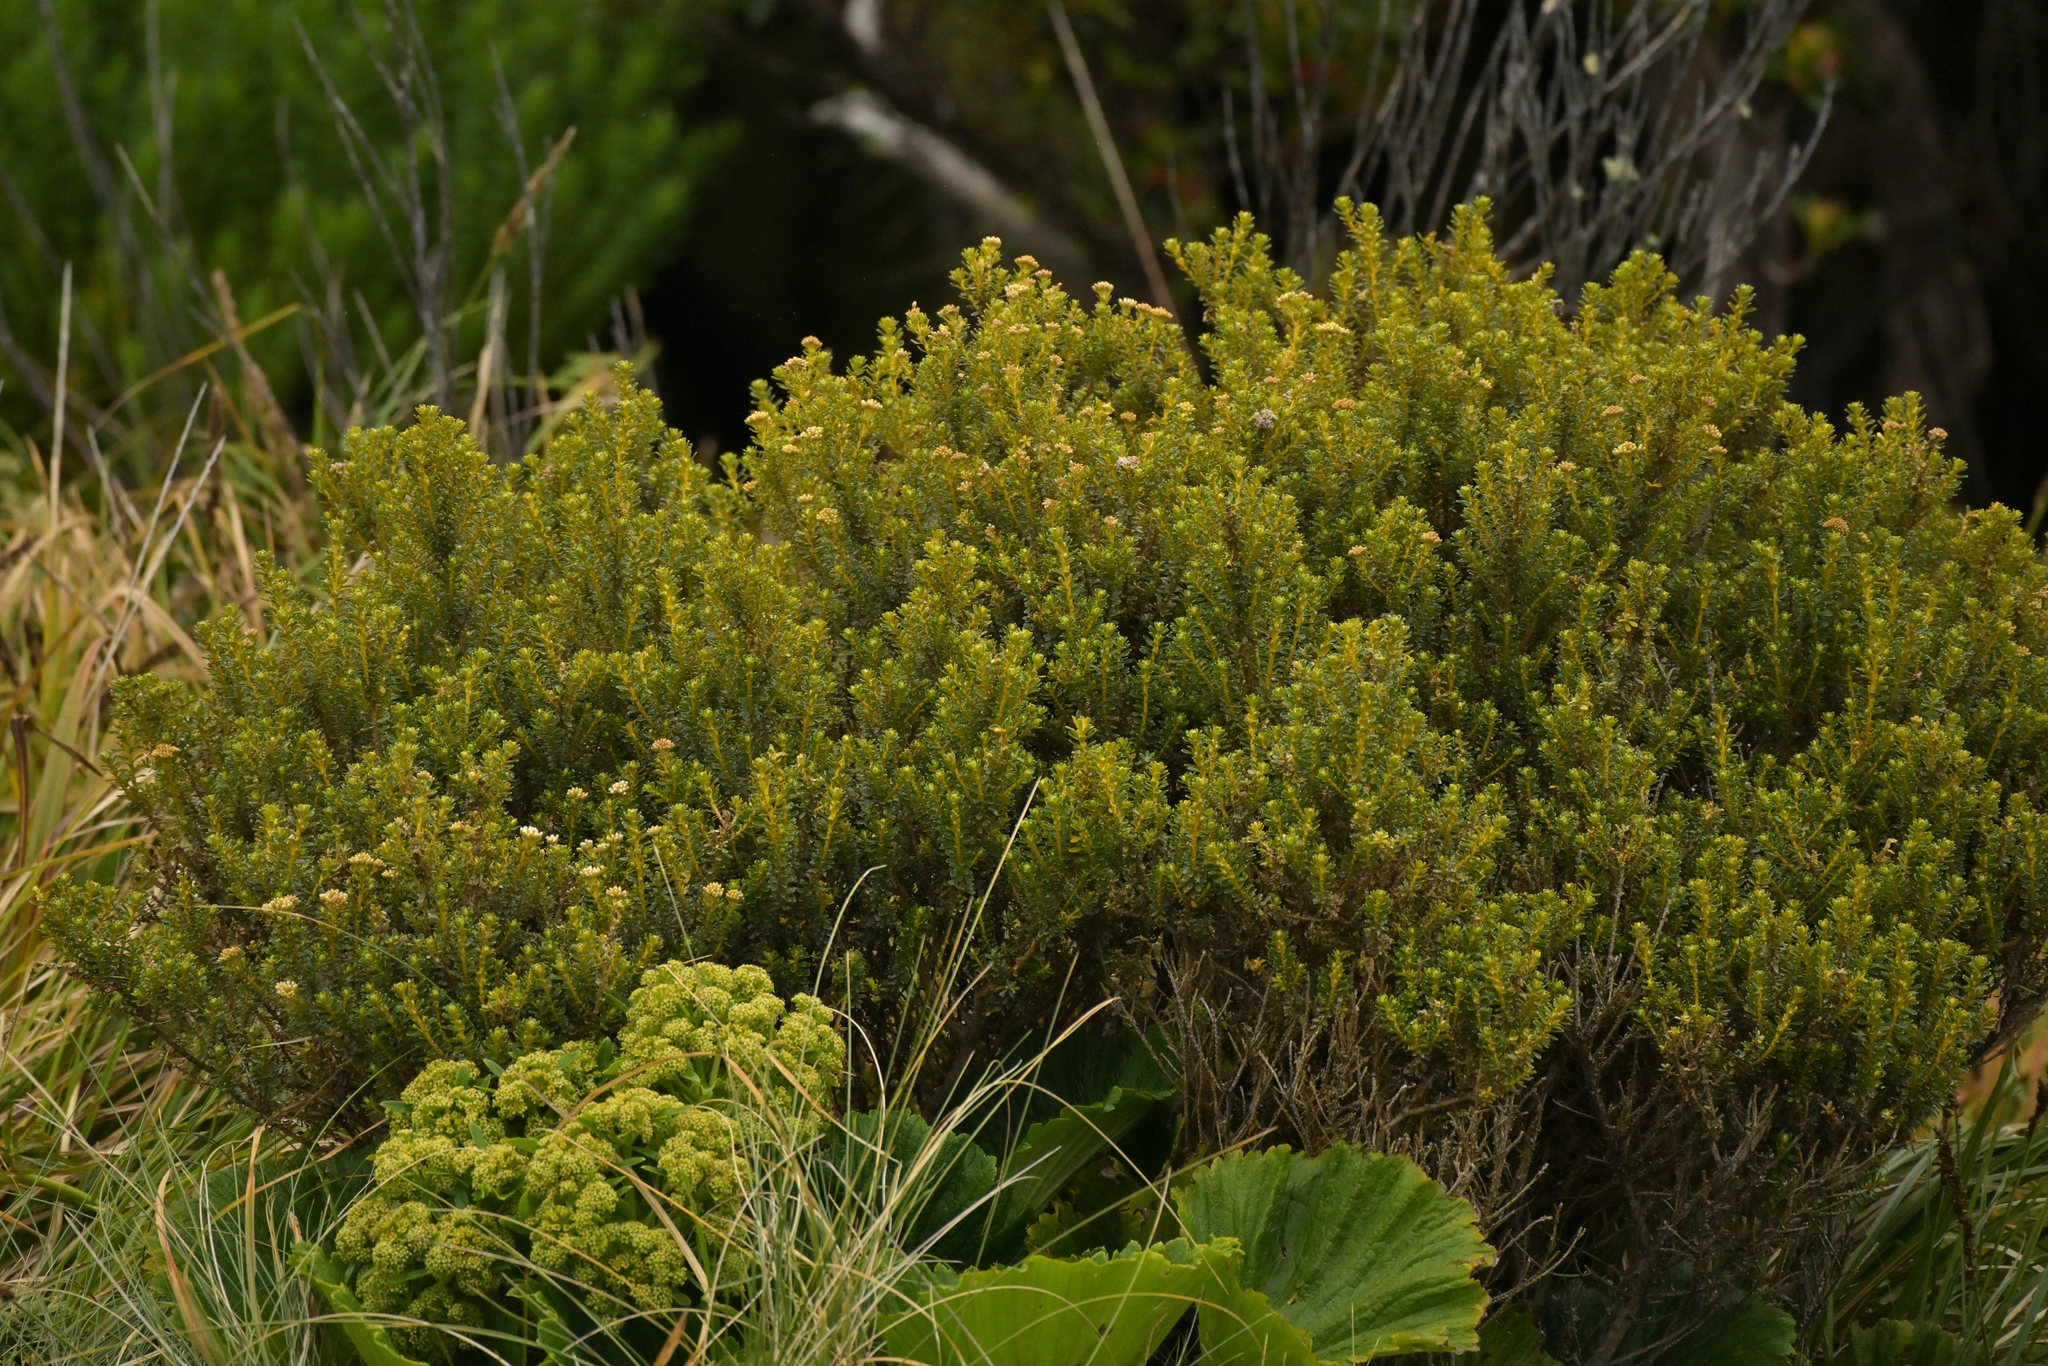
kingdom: Plantae
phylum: Tracheophyta
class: Magnoliopsida
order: Asterales
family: Asteraceae
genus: Ozothamnus
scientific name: Ozothamnus leptophyllus
